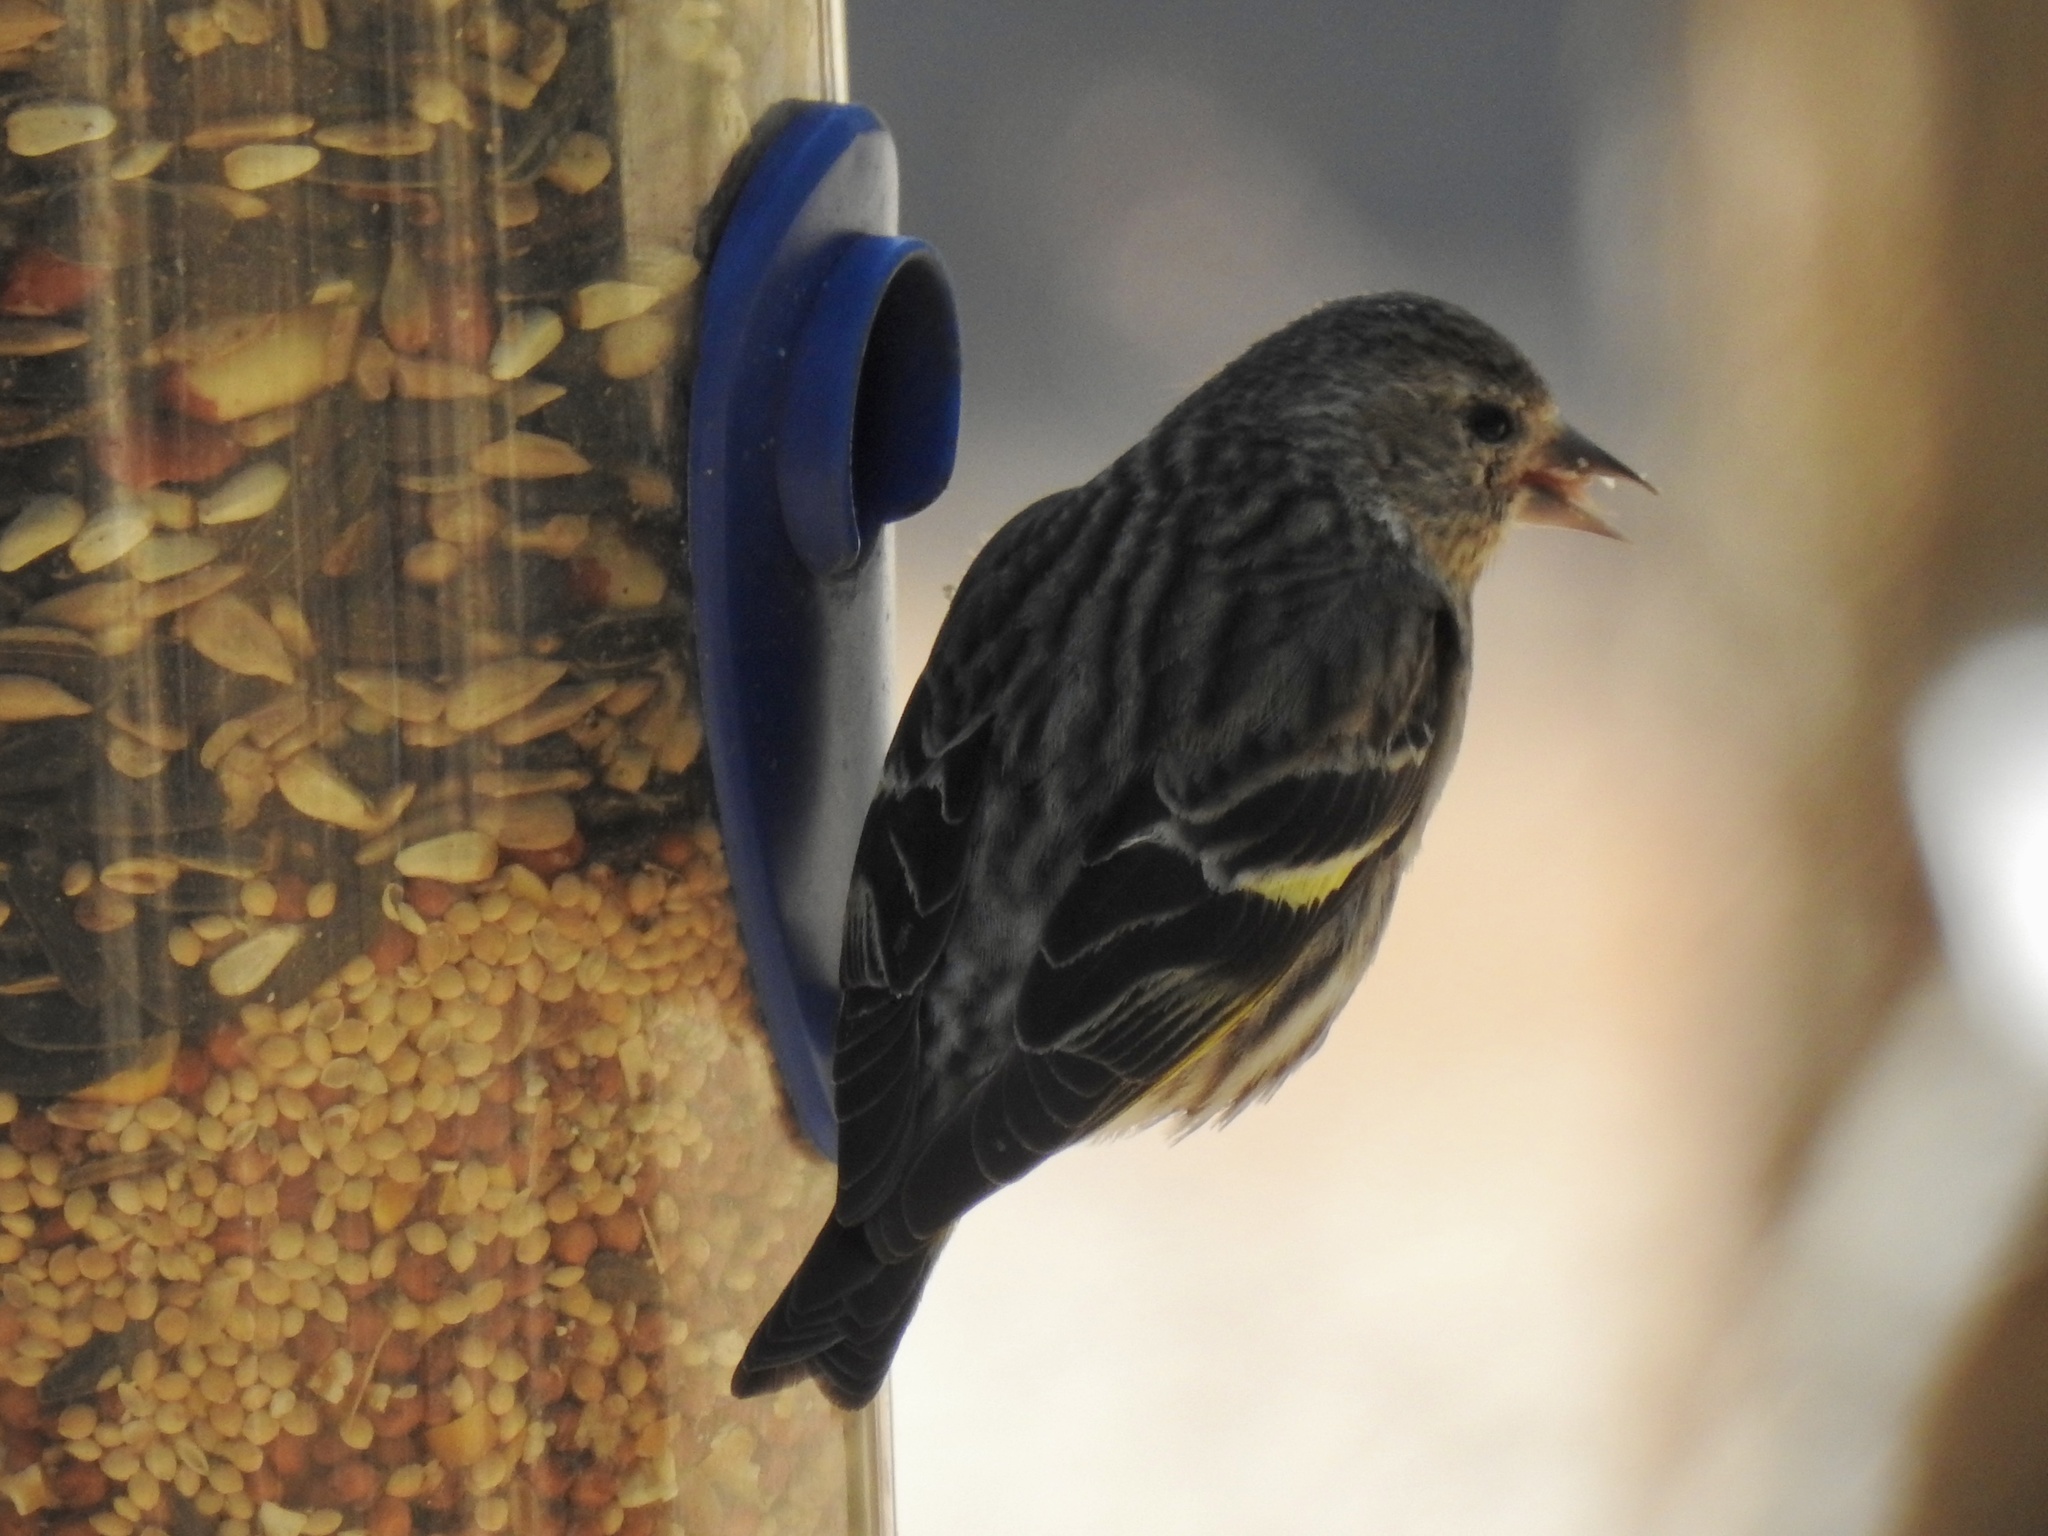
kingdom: Animalia
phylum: Chordata
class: Aves
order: Passeriformes
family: Fringillidae
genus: Spinus
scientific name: Spinus pinus
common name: Pine siskin
